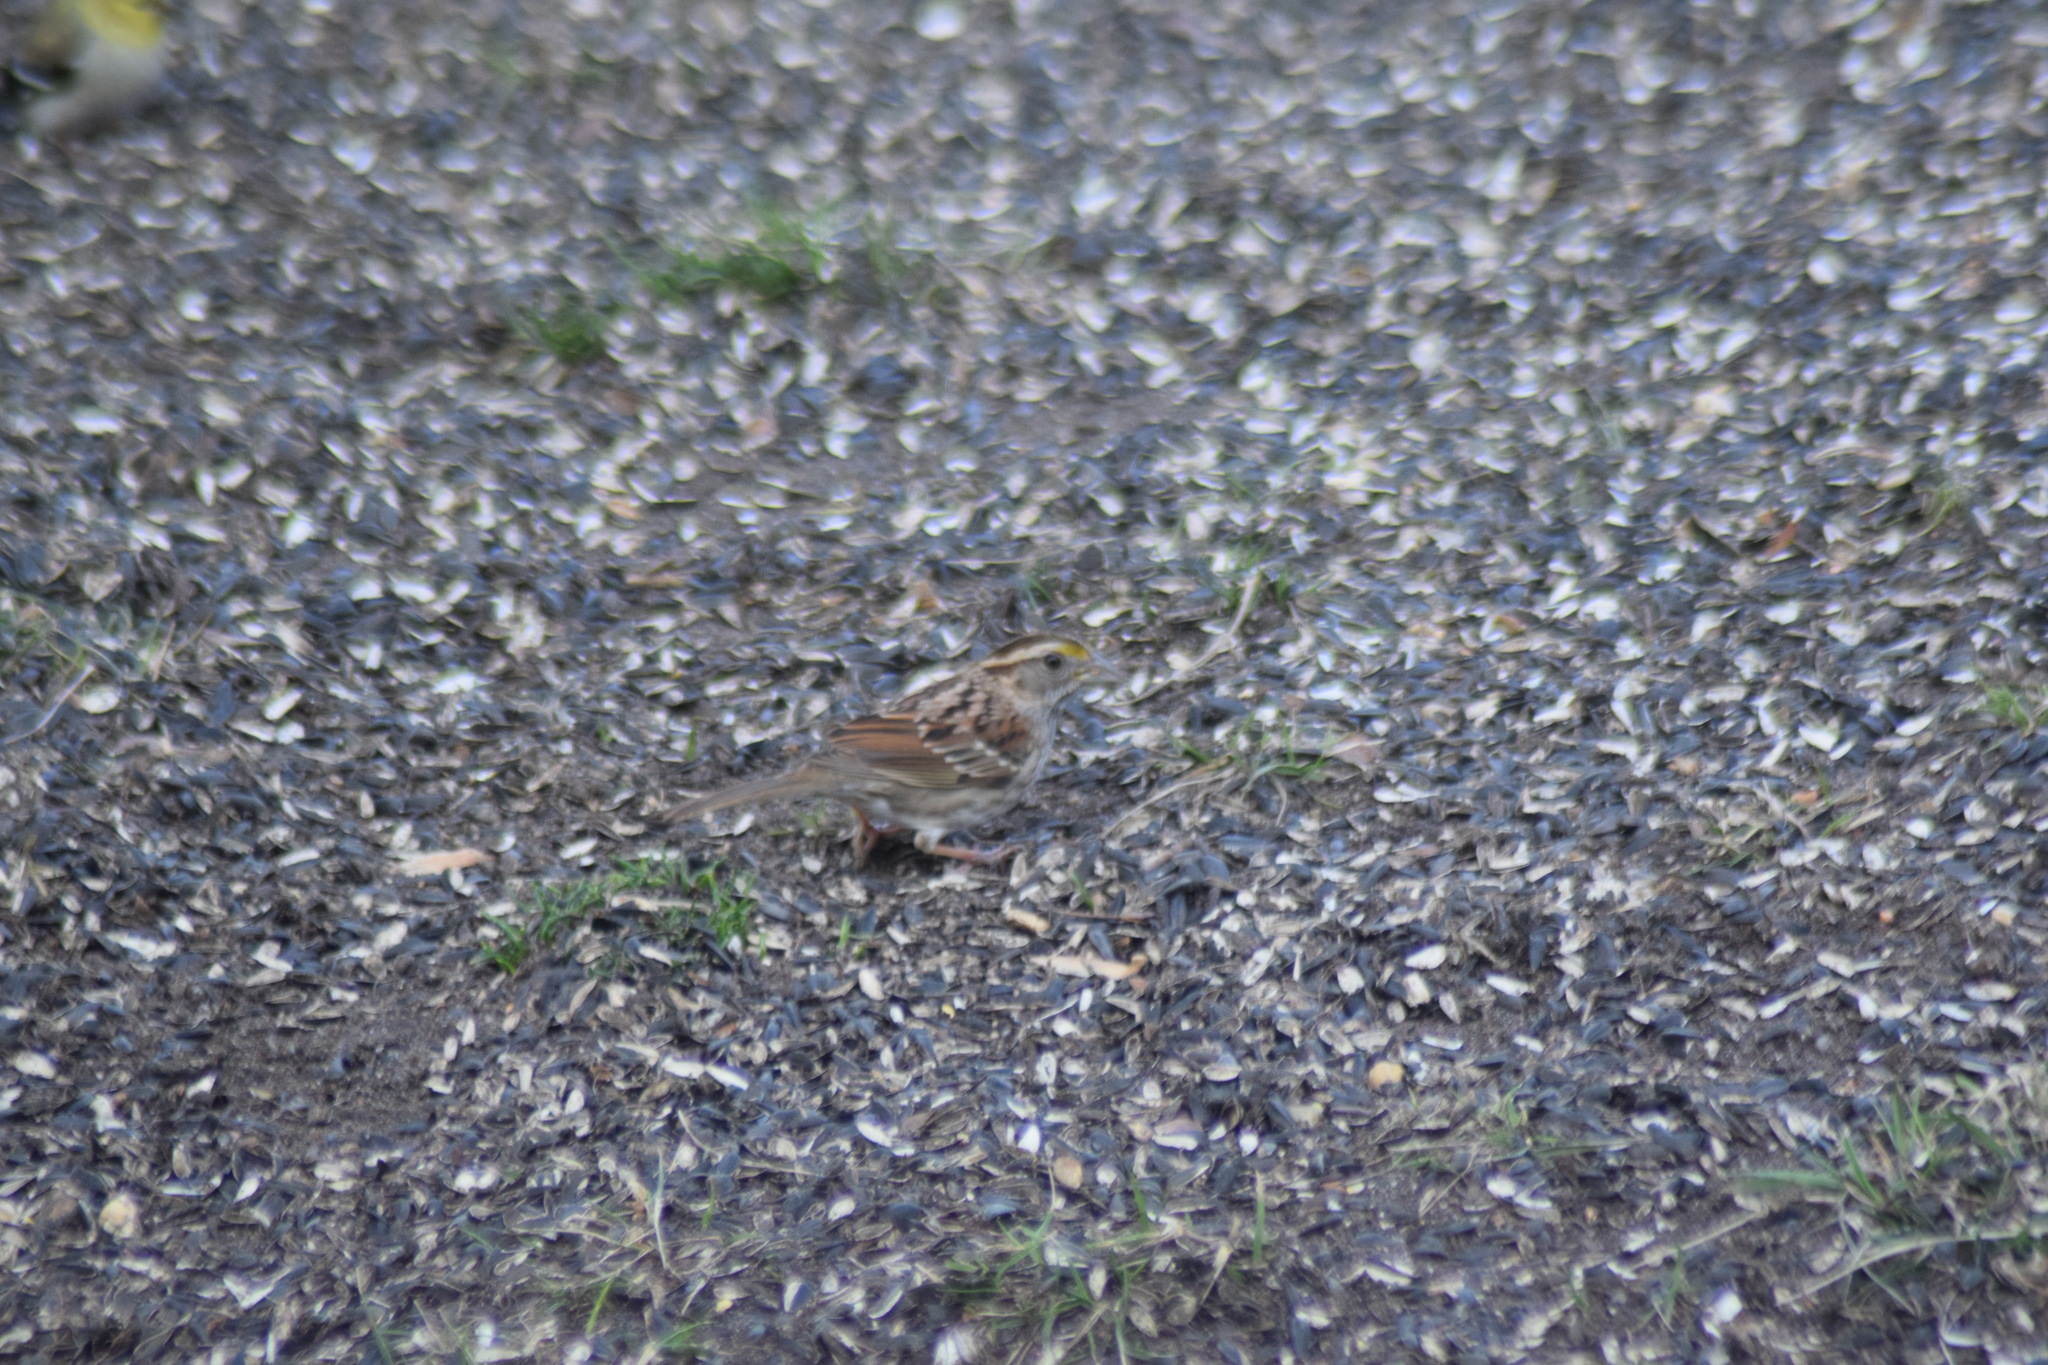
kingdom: Animalia
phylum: Chordata
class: Aves
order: Passeriformes
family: Passerellidae
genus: Zonotrichia
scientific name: Zonotrichia albicollis
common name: White-throated sparrow
